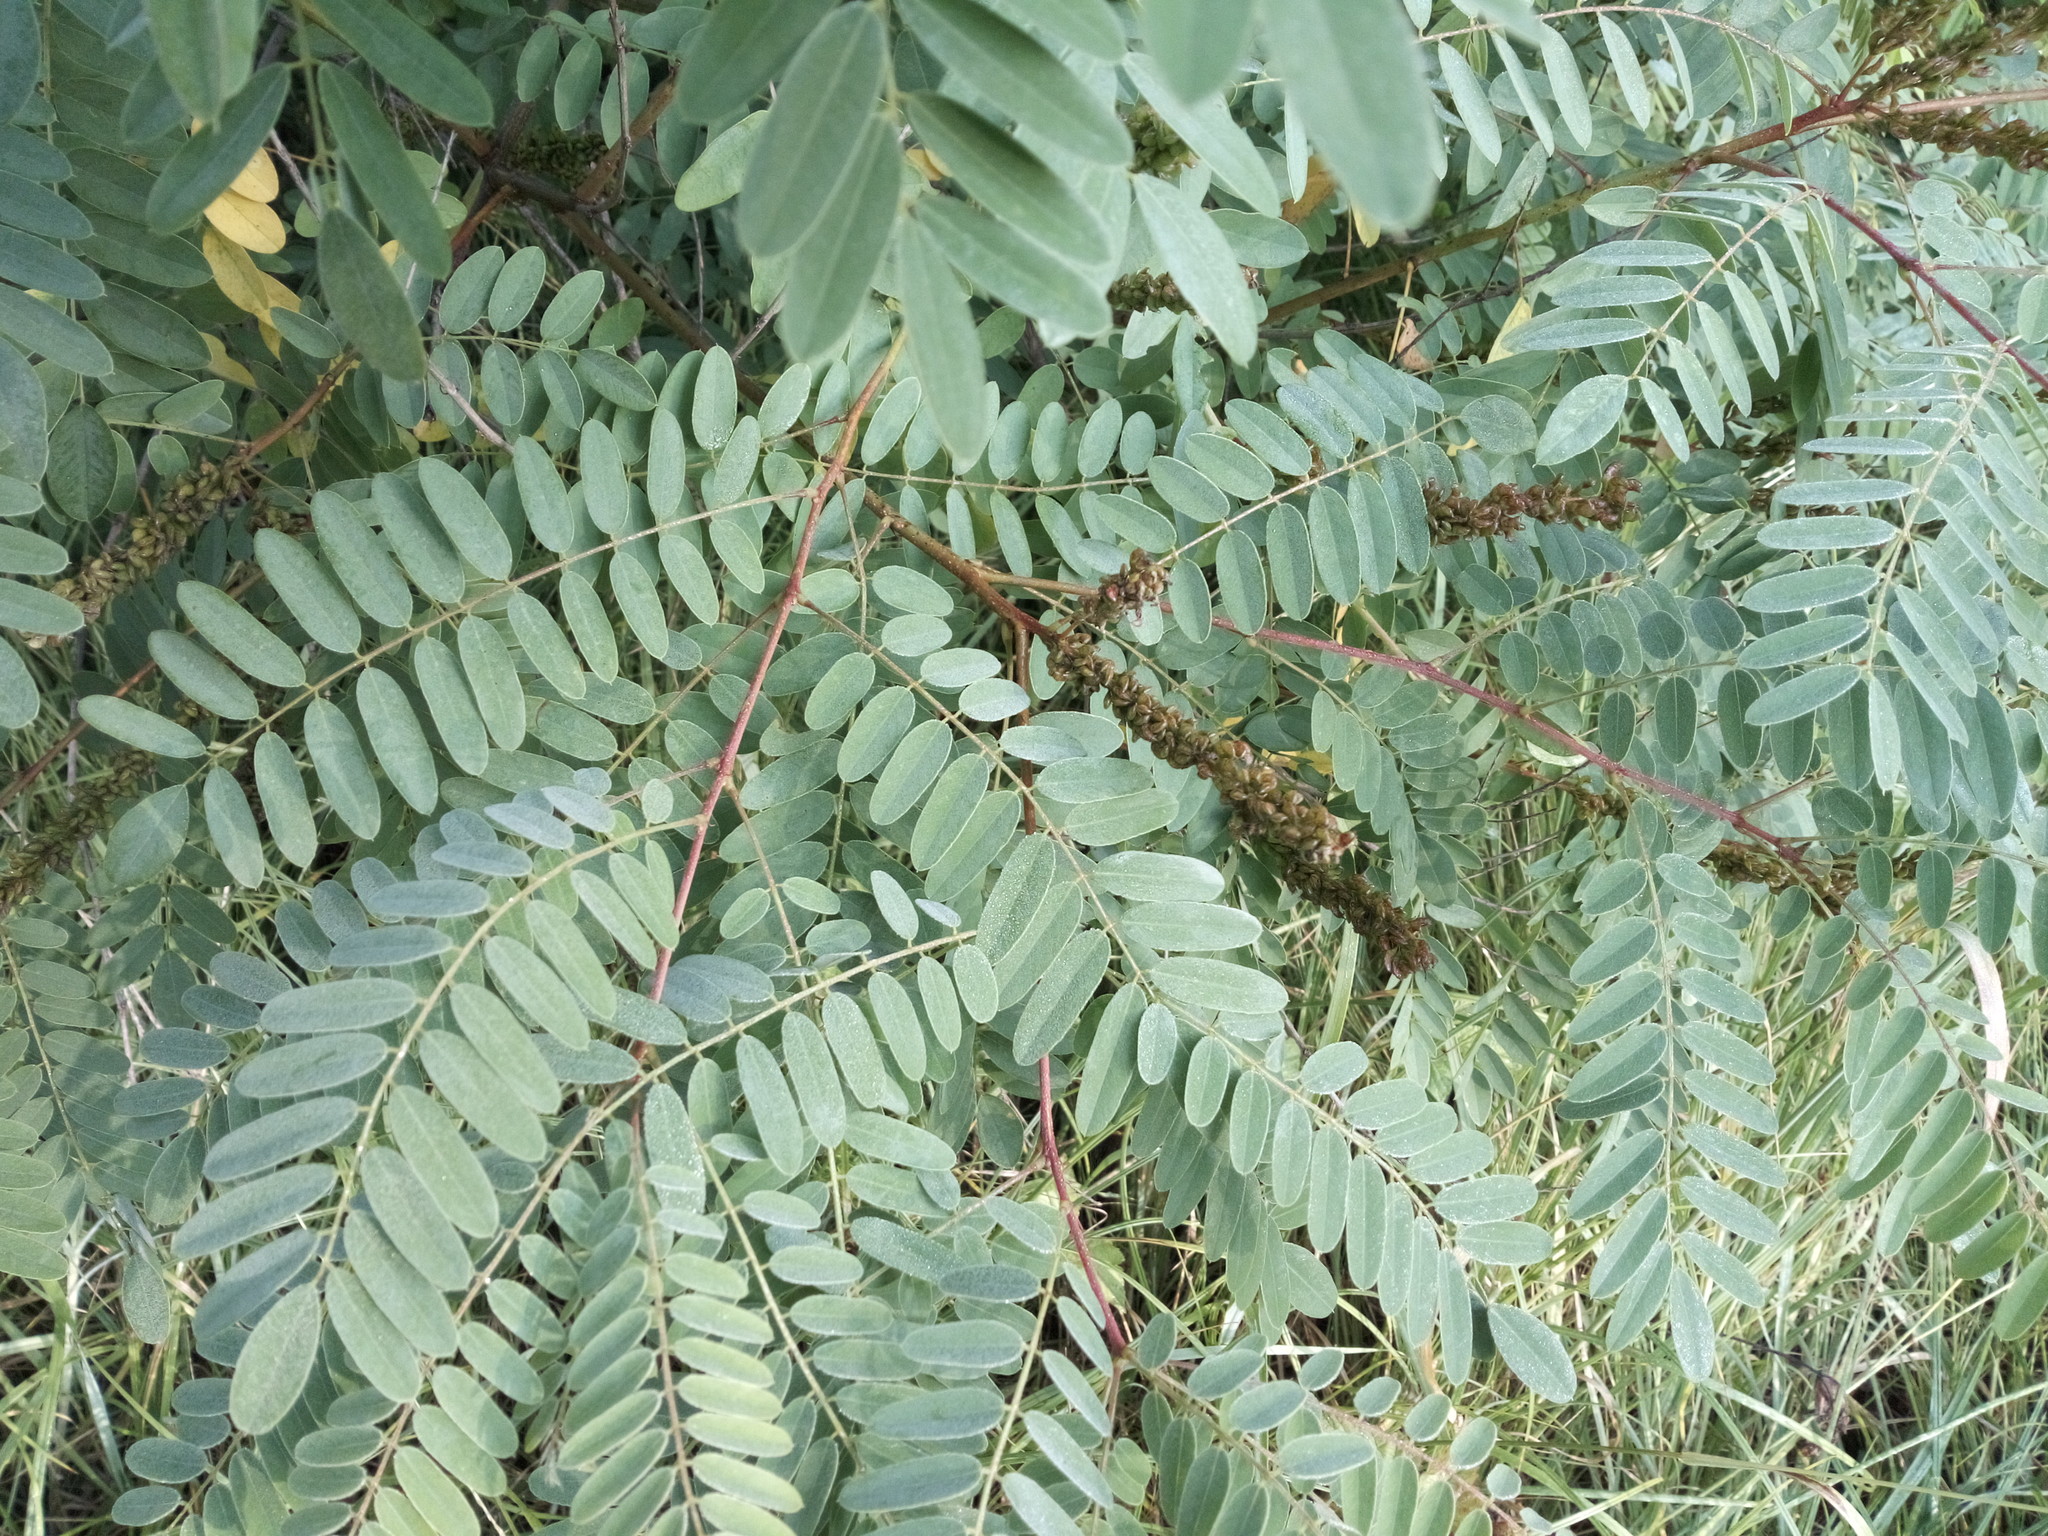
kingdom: Plantae
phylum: Tracheophyta
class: Magnoliopsida
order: Fabales
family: Fabaceae
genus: Amorpha
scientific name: Amorpha fruticosa
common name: False indigo
